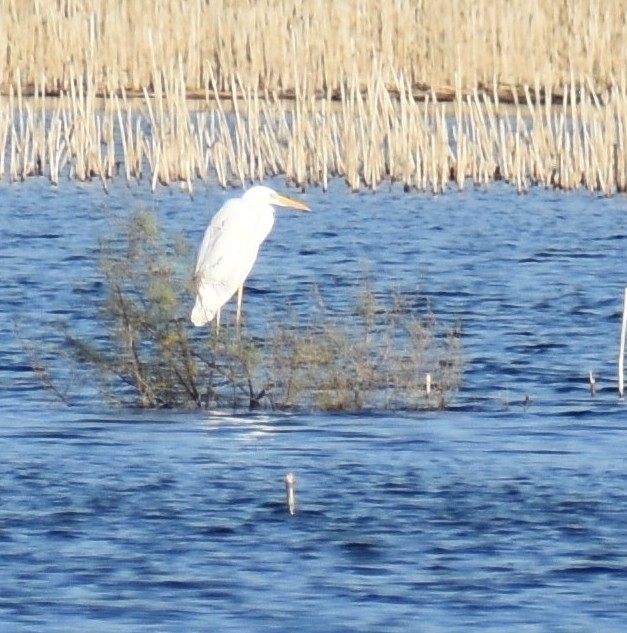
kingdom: Animalia
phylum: Chordata
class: Aves
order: Pelecaniformes
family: Ardeidae
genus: Ardea
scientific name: Ardea alba
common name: Great egret
